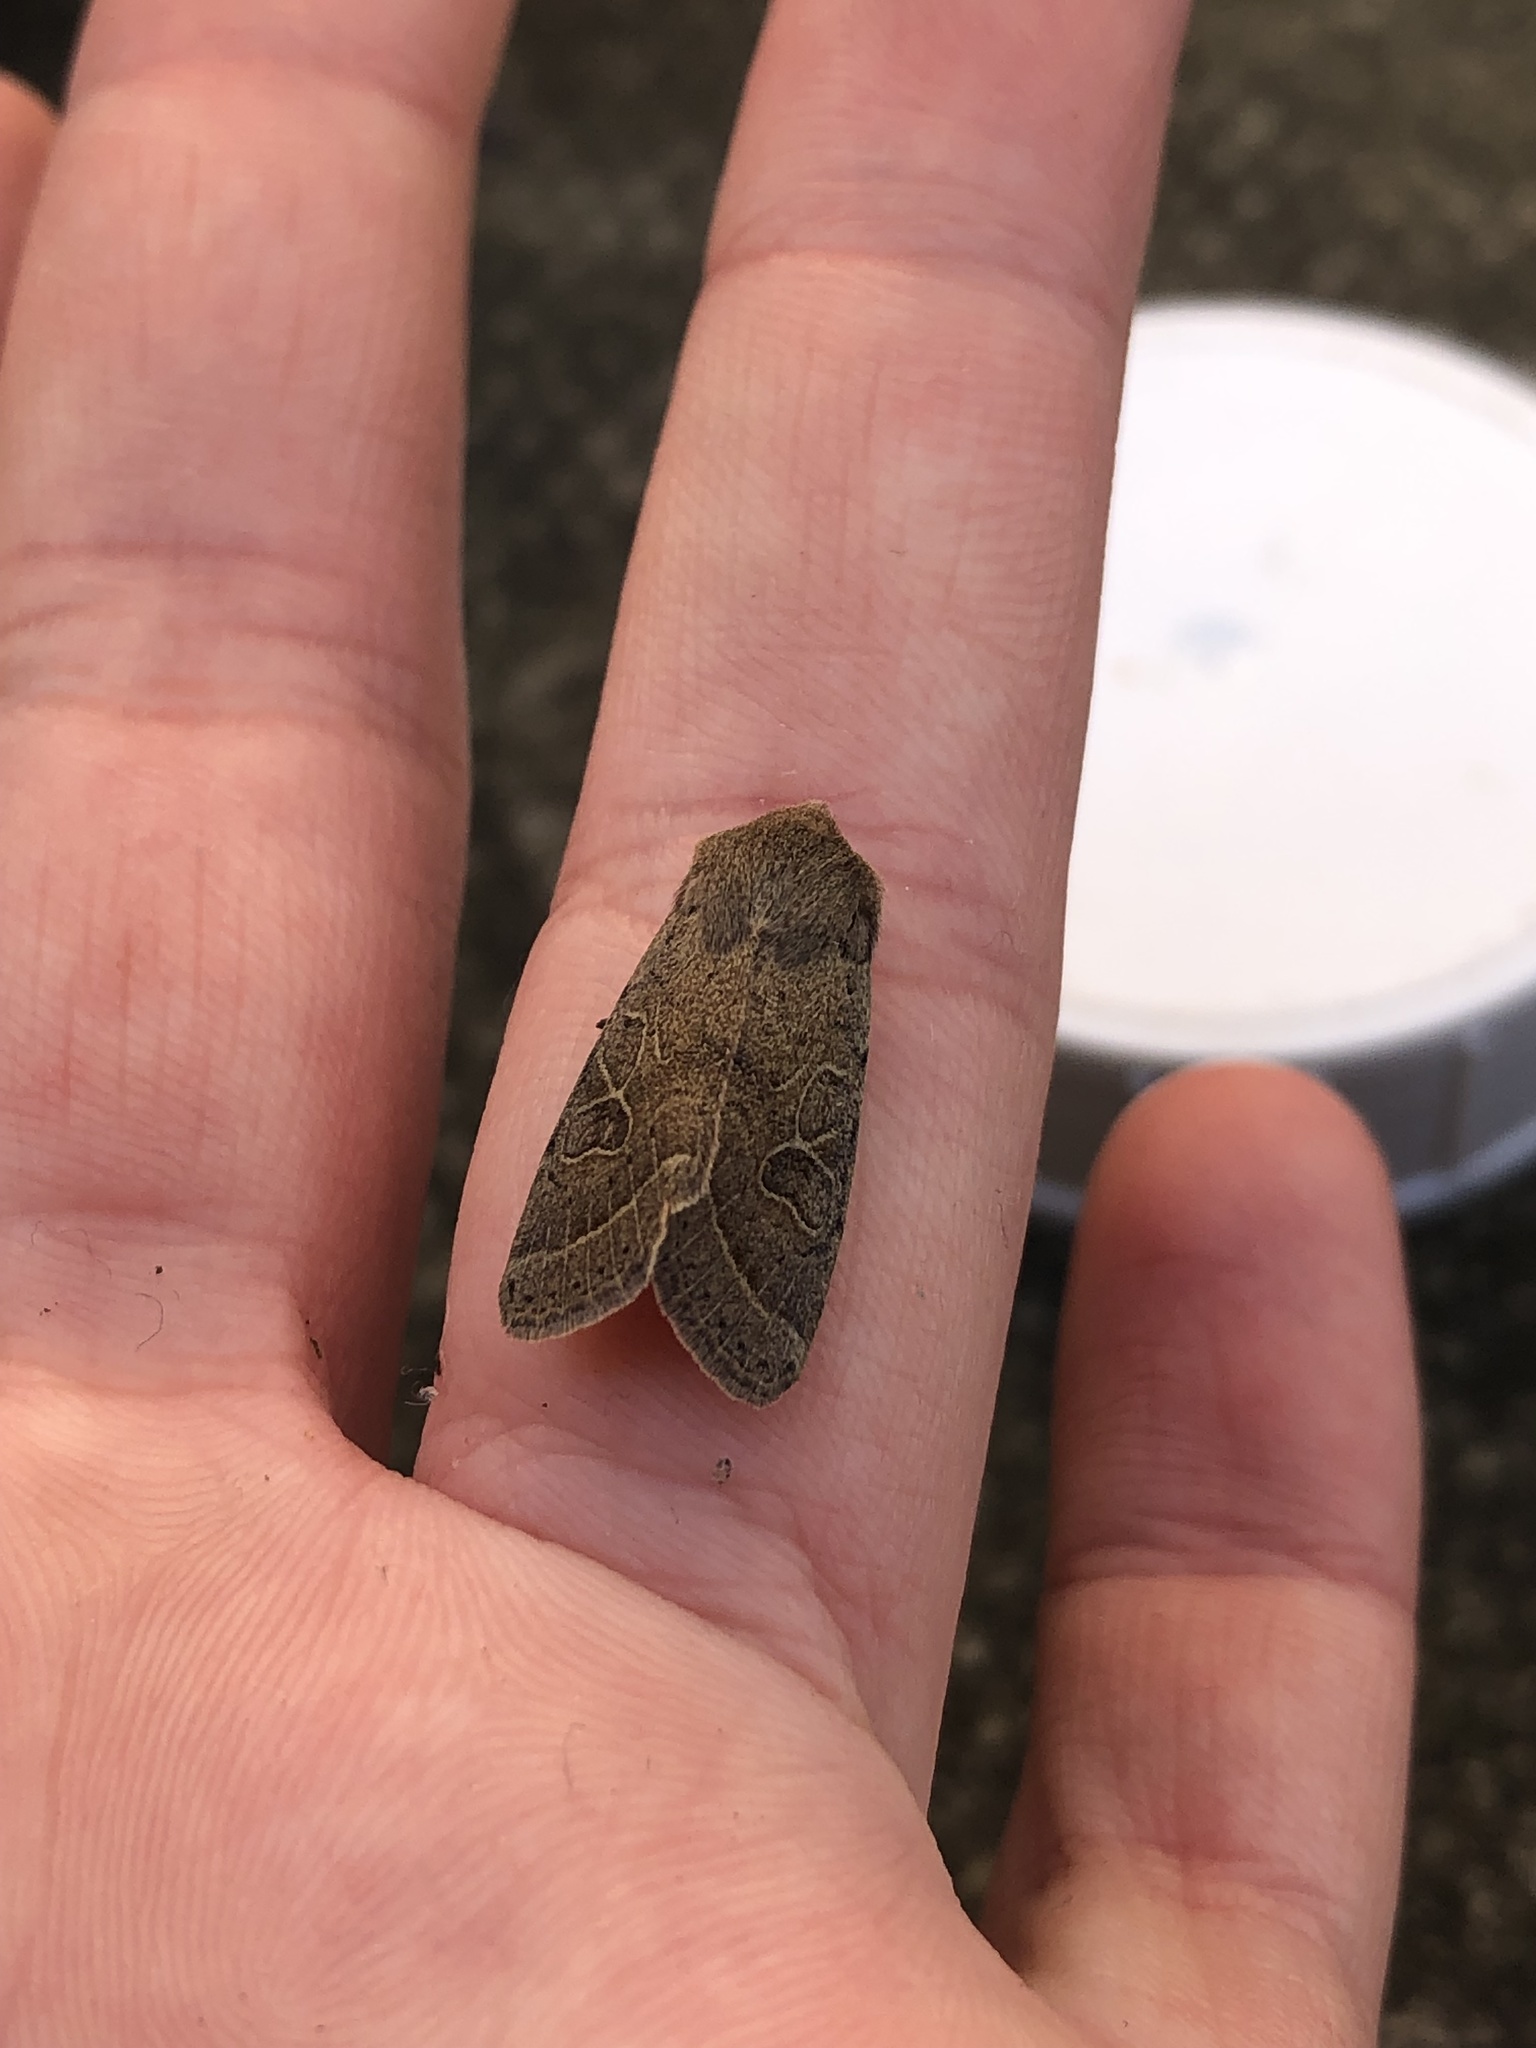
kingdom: Animalia
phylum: Arthropoda
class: Insecta
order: Lepidoptera
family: Noctuidae
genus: Orthosia
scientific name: Orthosia cerasi
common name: Common quaker
